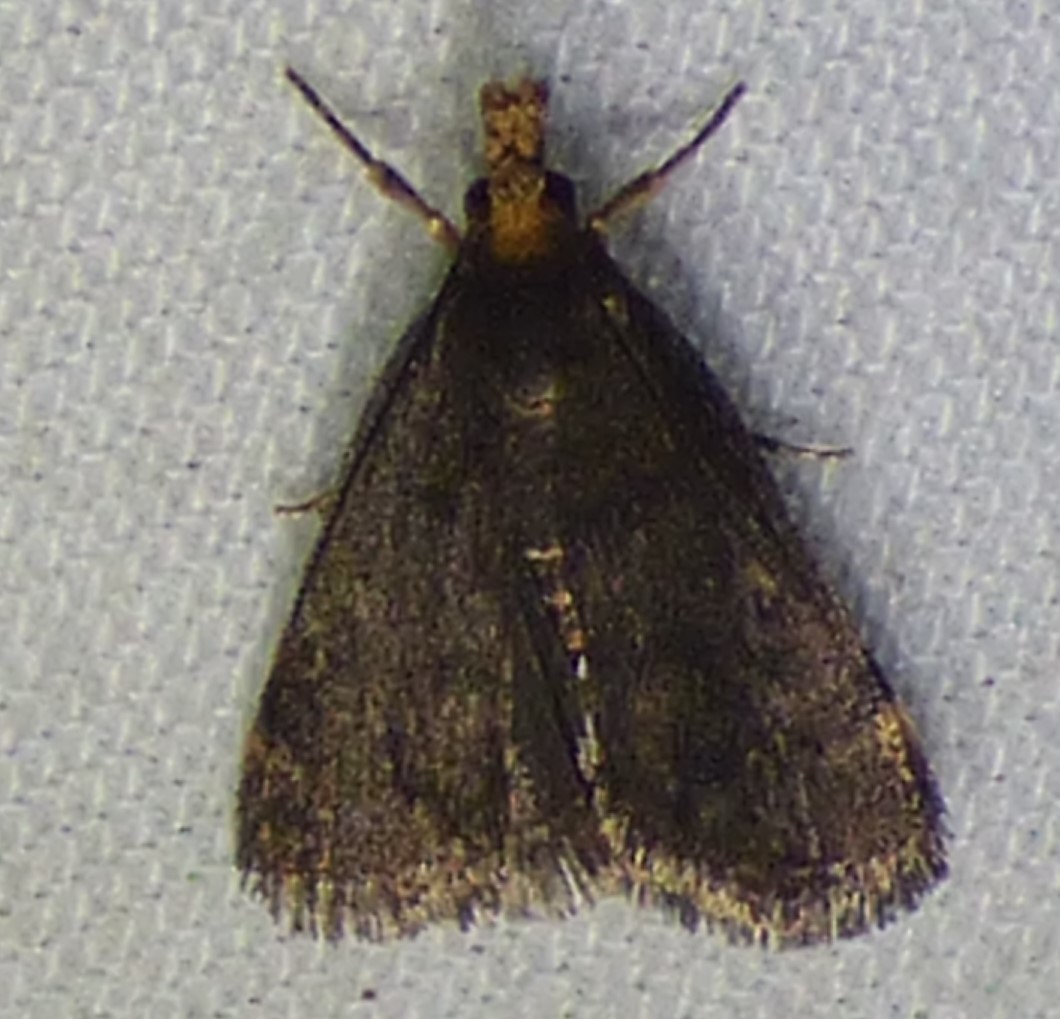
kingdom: Animalia
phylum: Arthropoda
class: Insecta
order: Lepidoptera
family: Crambidae
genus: Pyrausta
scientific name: Pyrausta merrickalis
